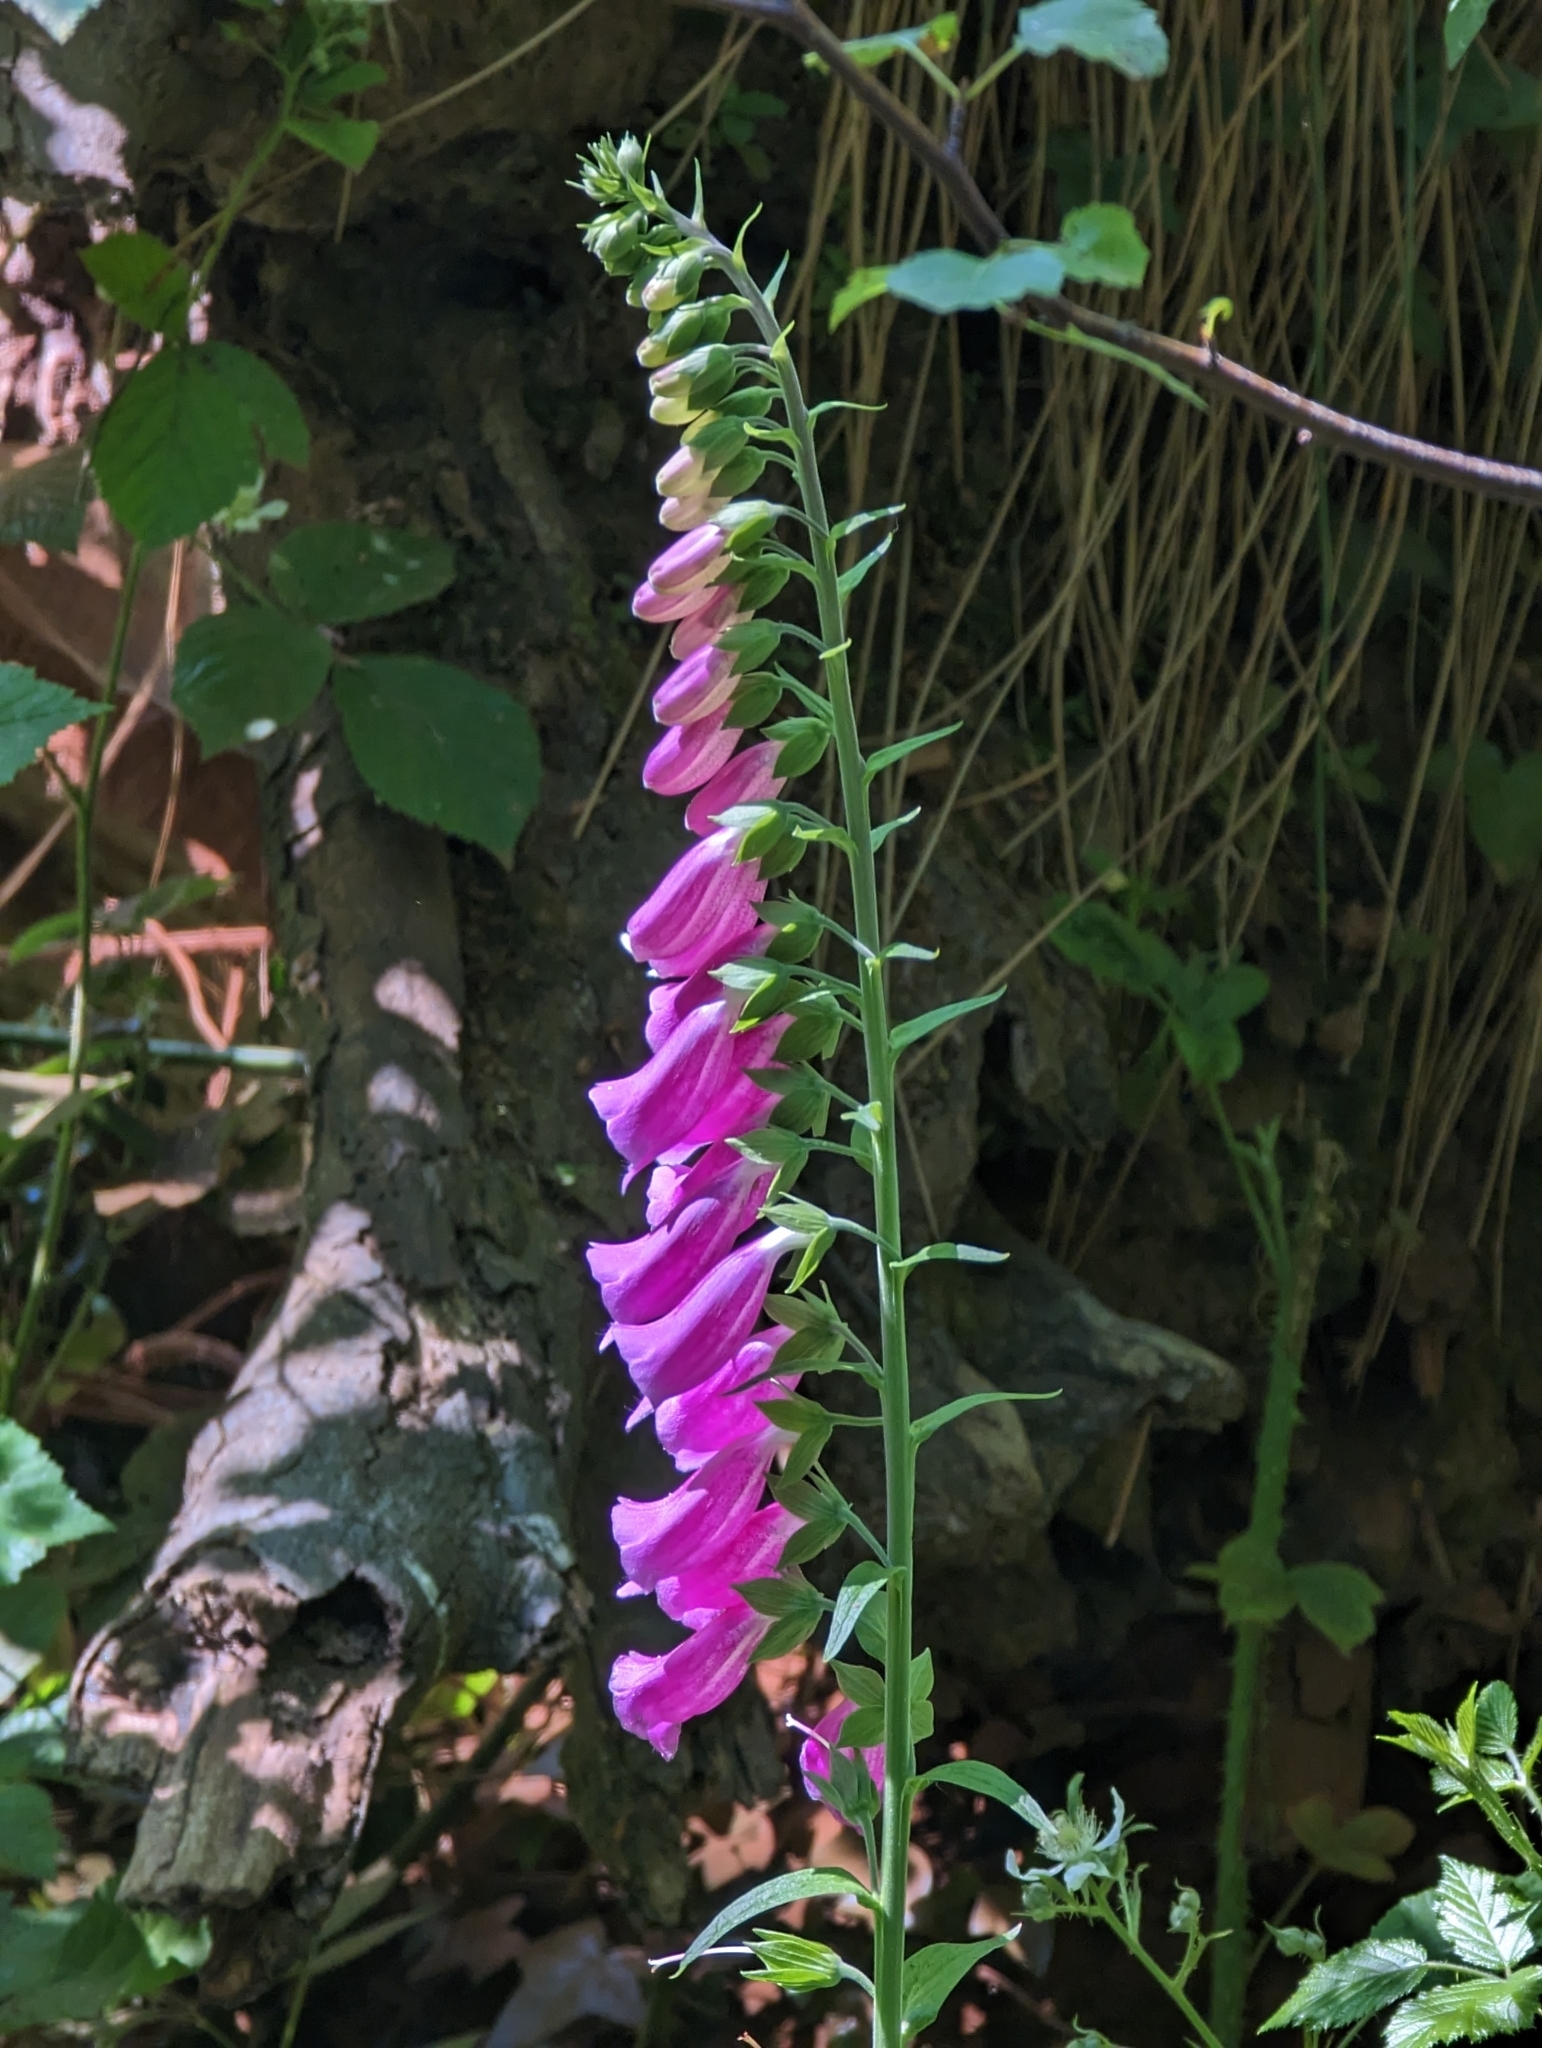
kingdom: Plantae
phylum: Tracheophyta
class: Magnoliopsida
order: Lamiales
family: Plantaginaceae
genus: Digitalis
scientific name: Digitalis purpurea
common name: Foxglove
